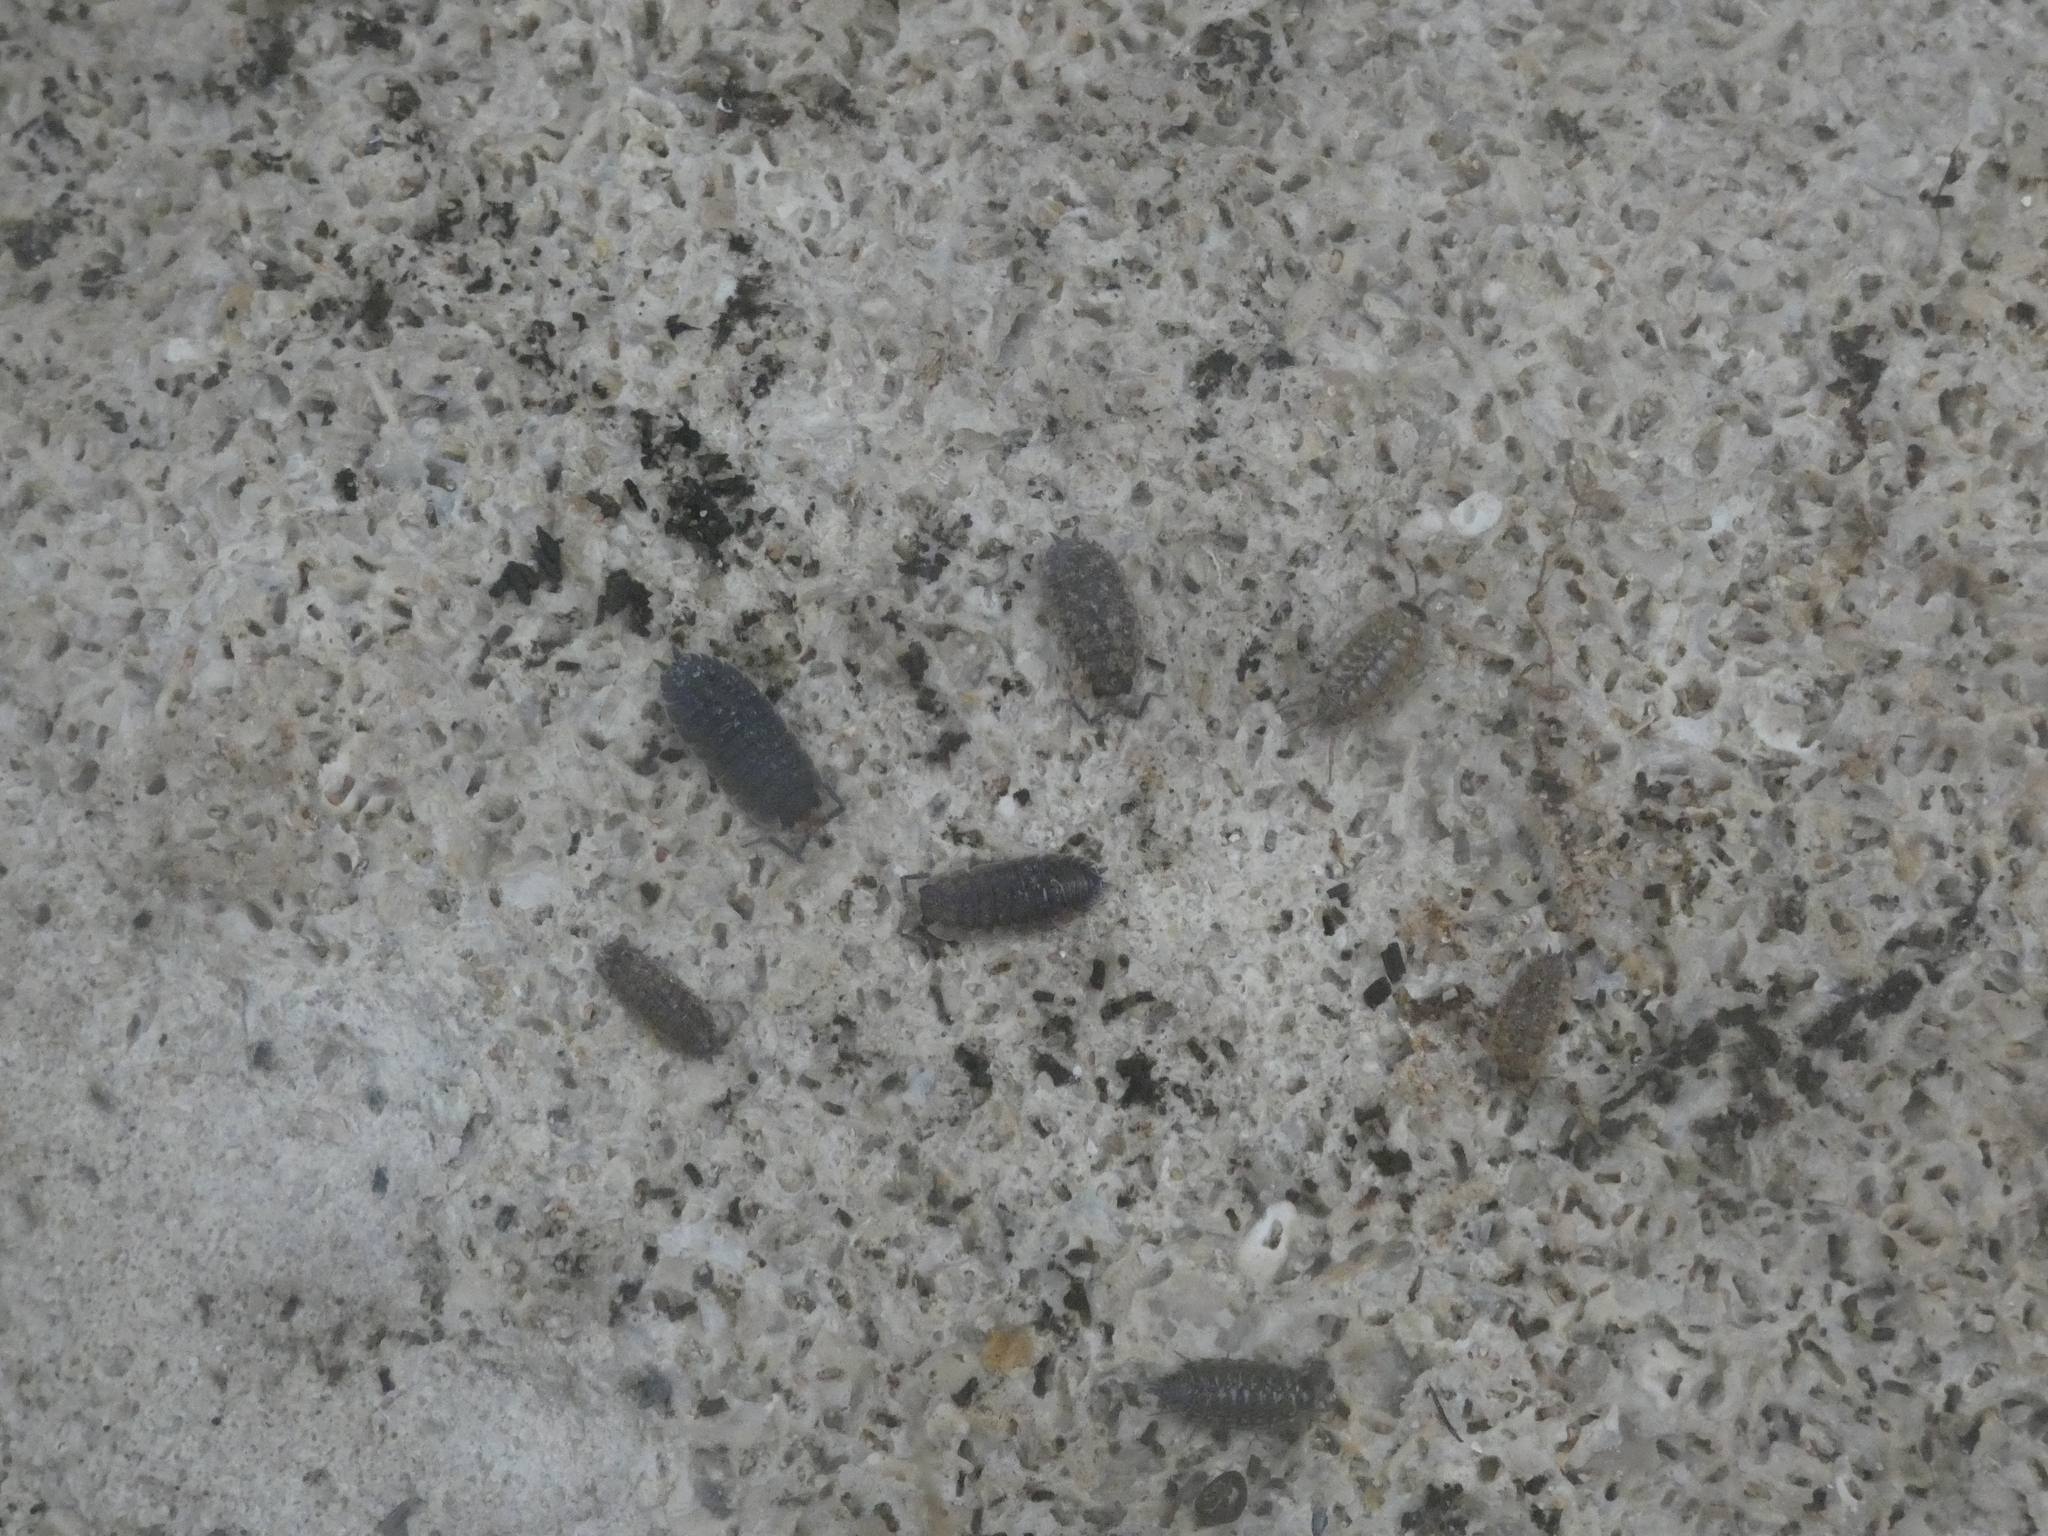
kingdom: Animalia
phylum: Arthropoda
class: Malacostraca
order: Isopoda
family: Porcellionidae
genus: Porcellio
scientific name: Porcellio scaber
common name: Common rough woodlouse
